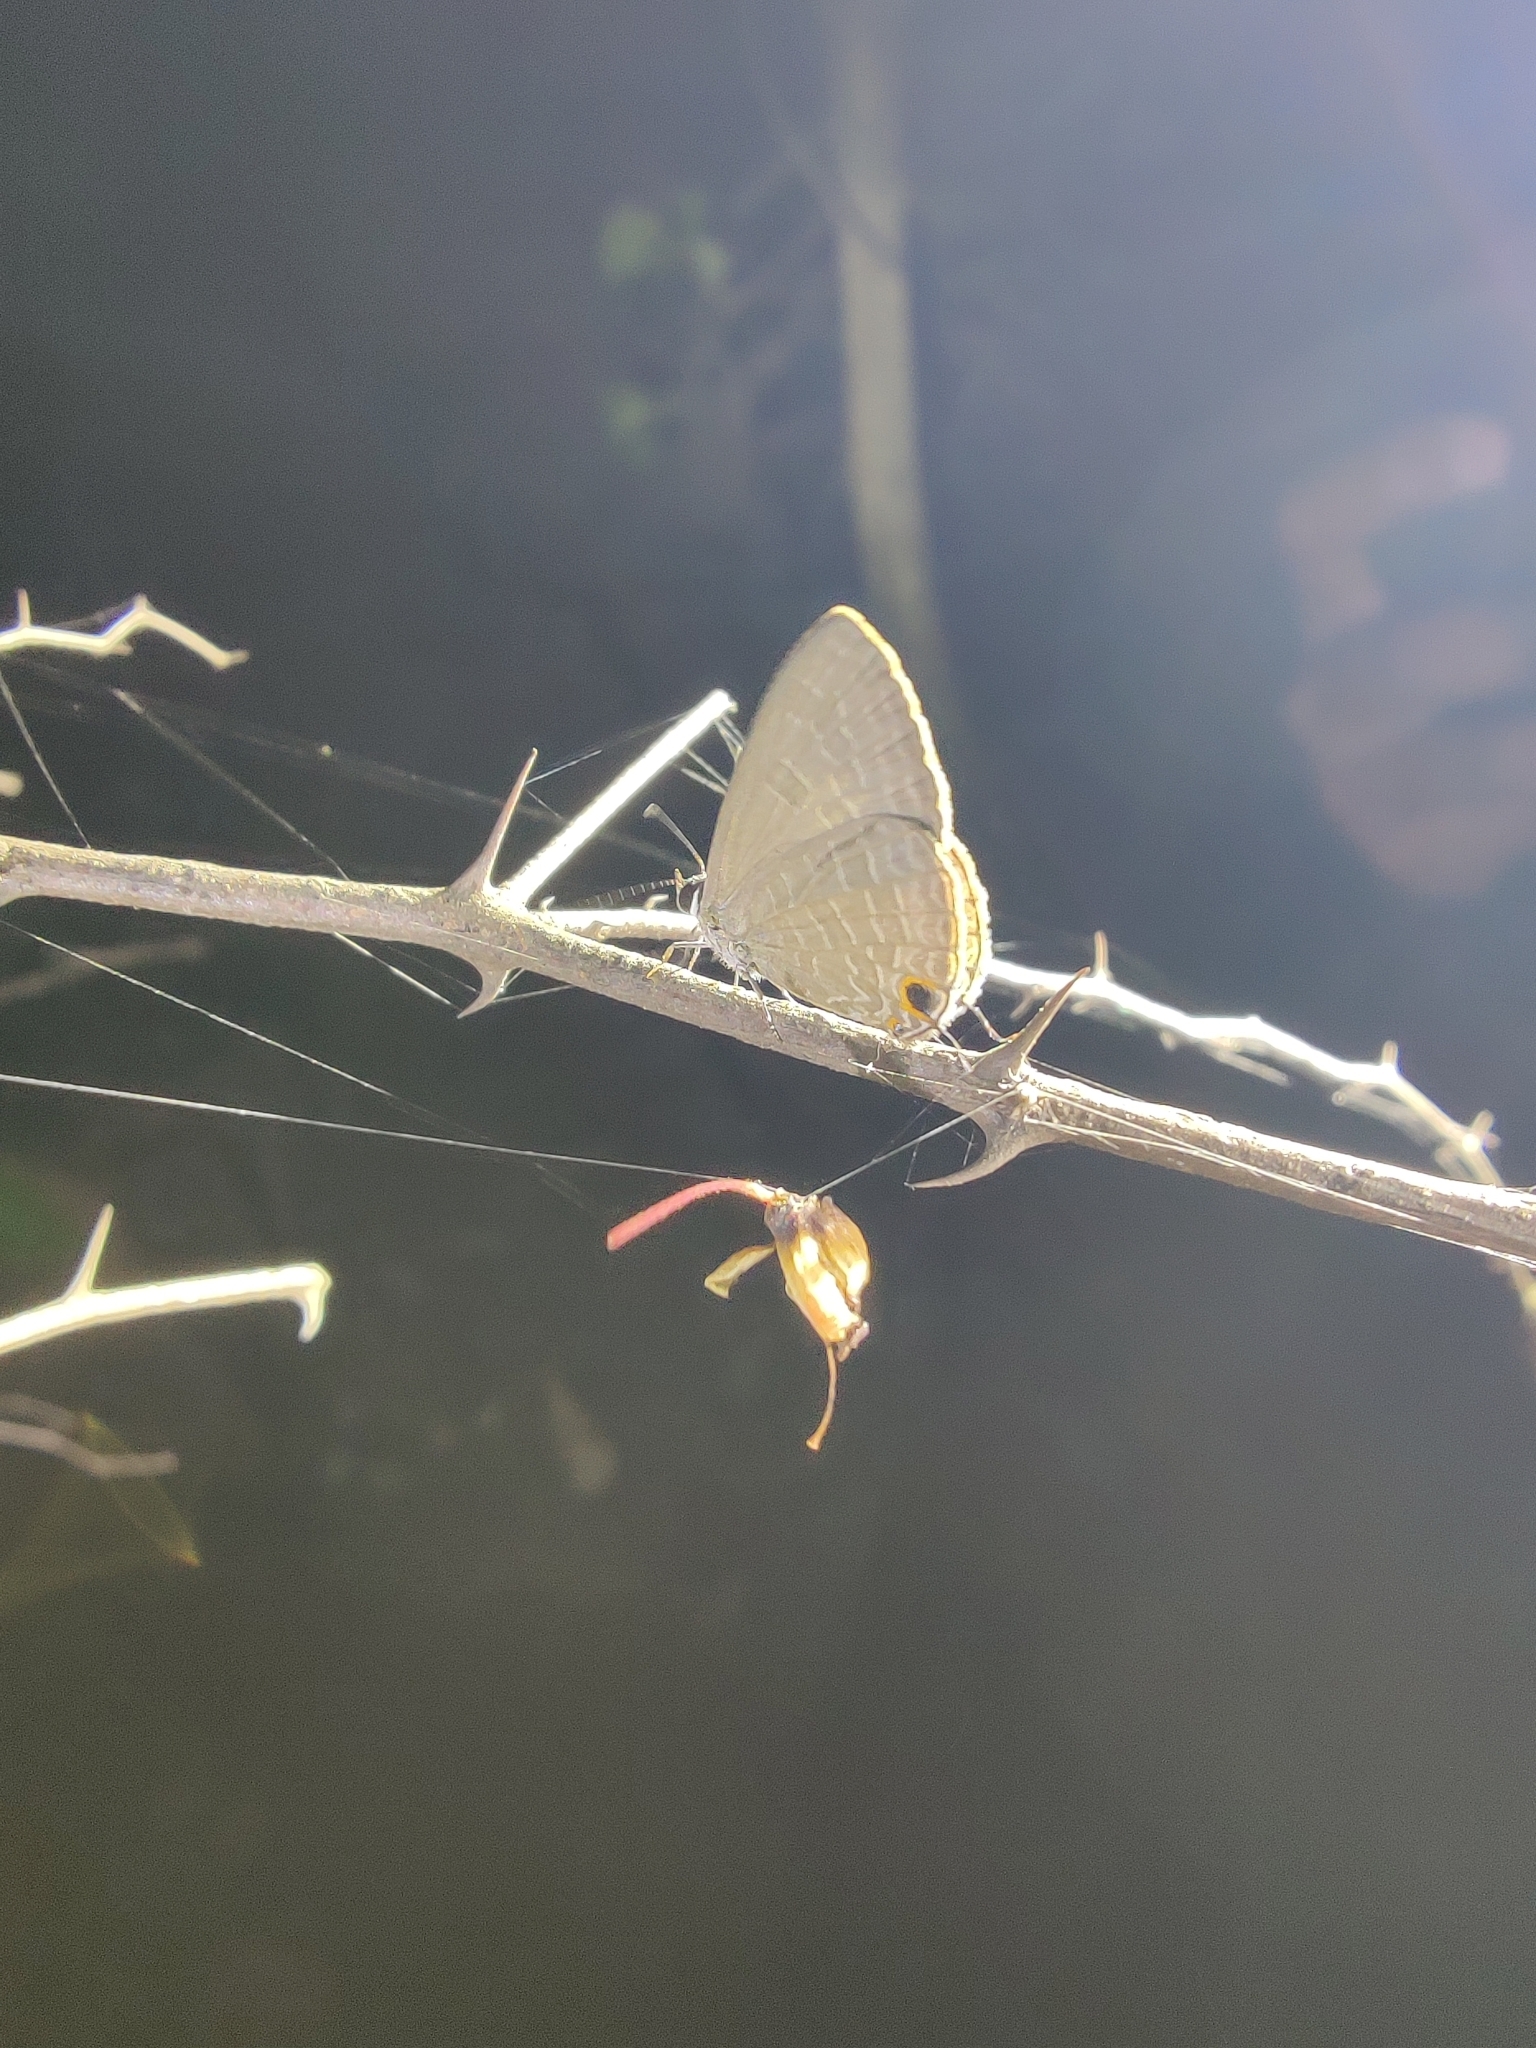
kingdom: Animalia
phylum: Arthropoda
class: Insecta
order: Lepidoptera
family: Lycaenidae
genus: Jamides
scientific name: Jamides bochus
